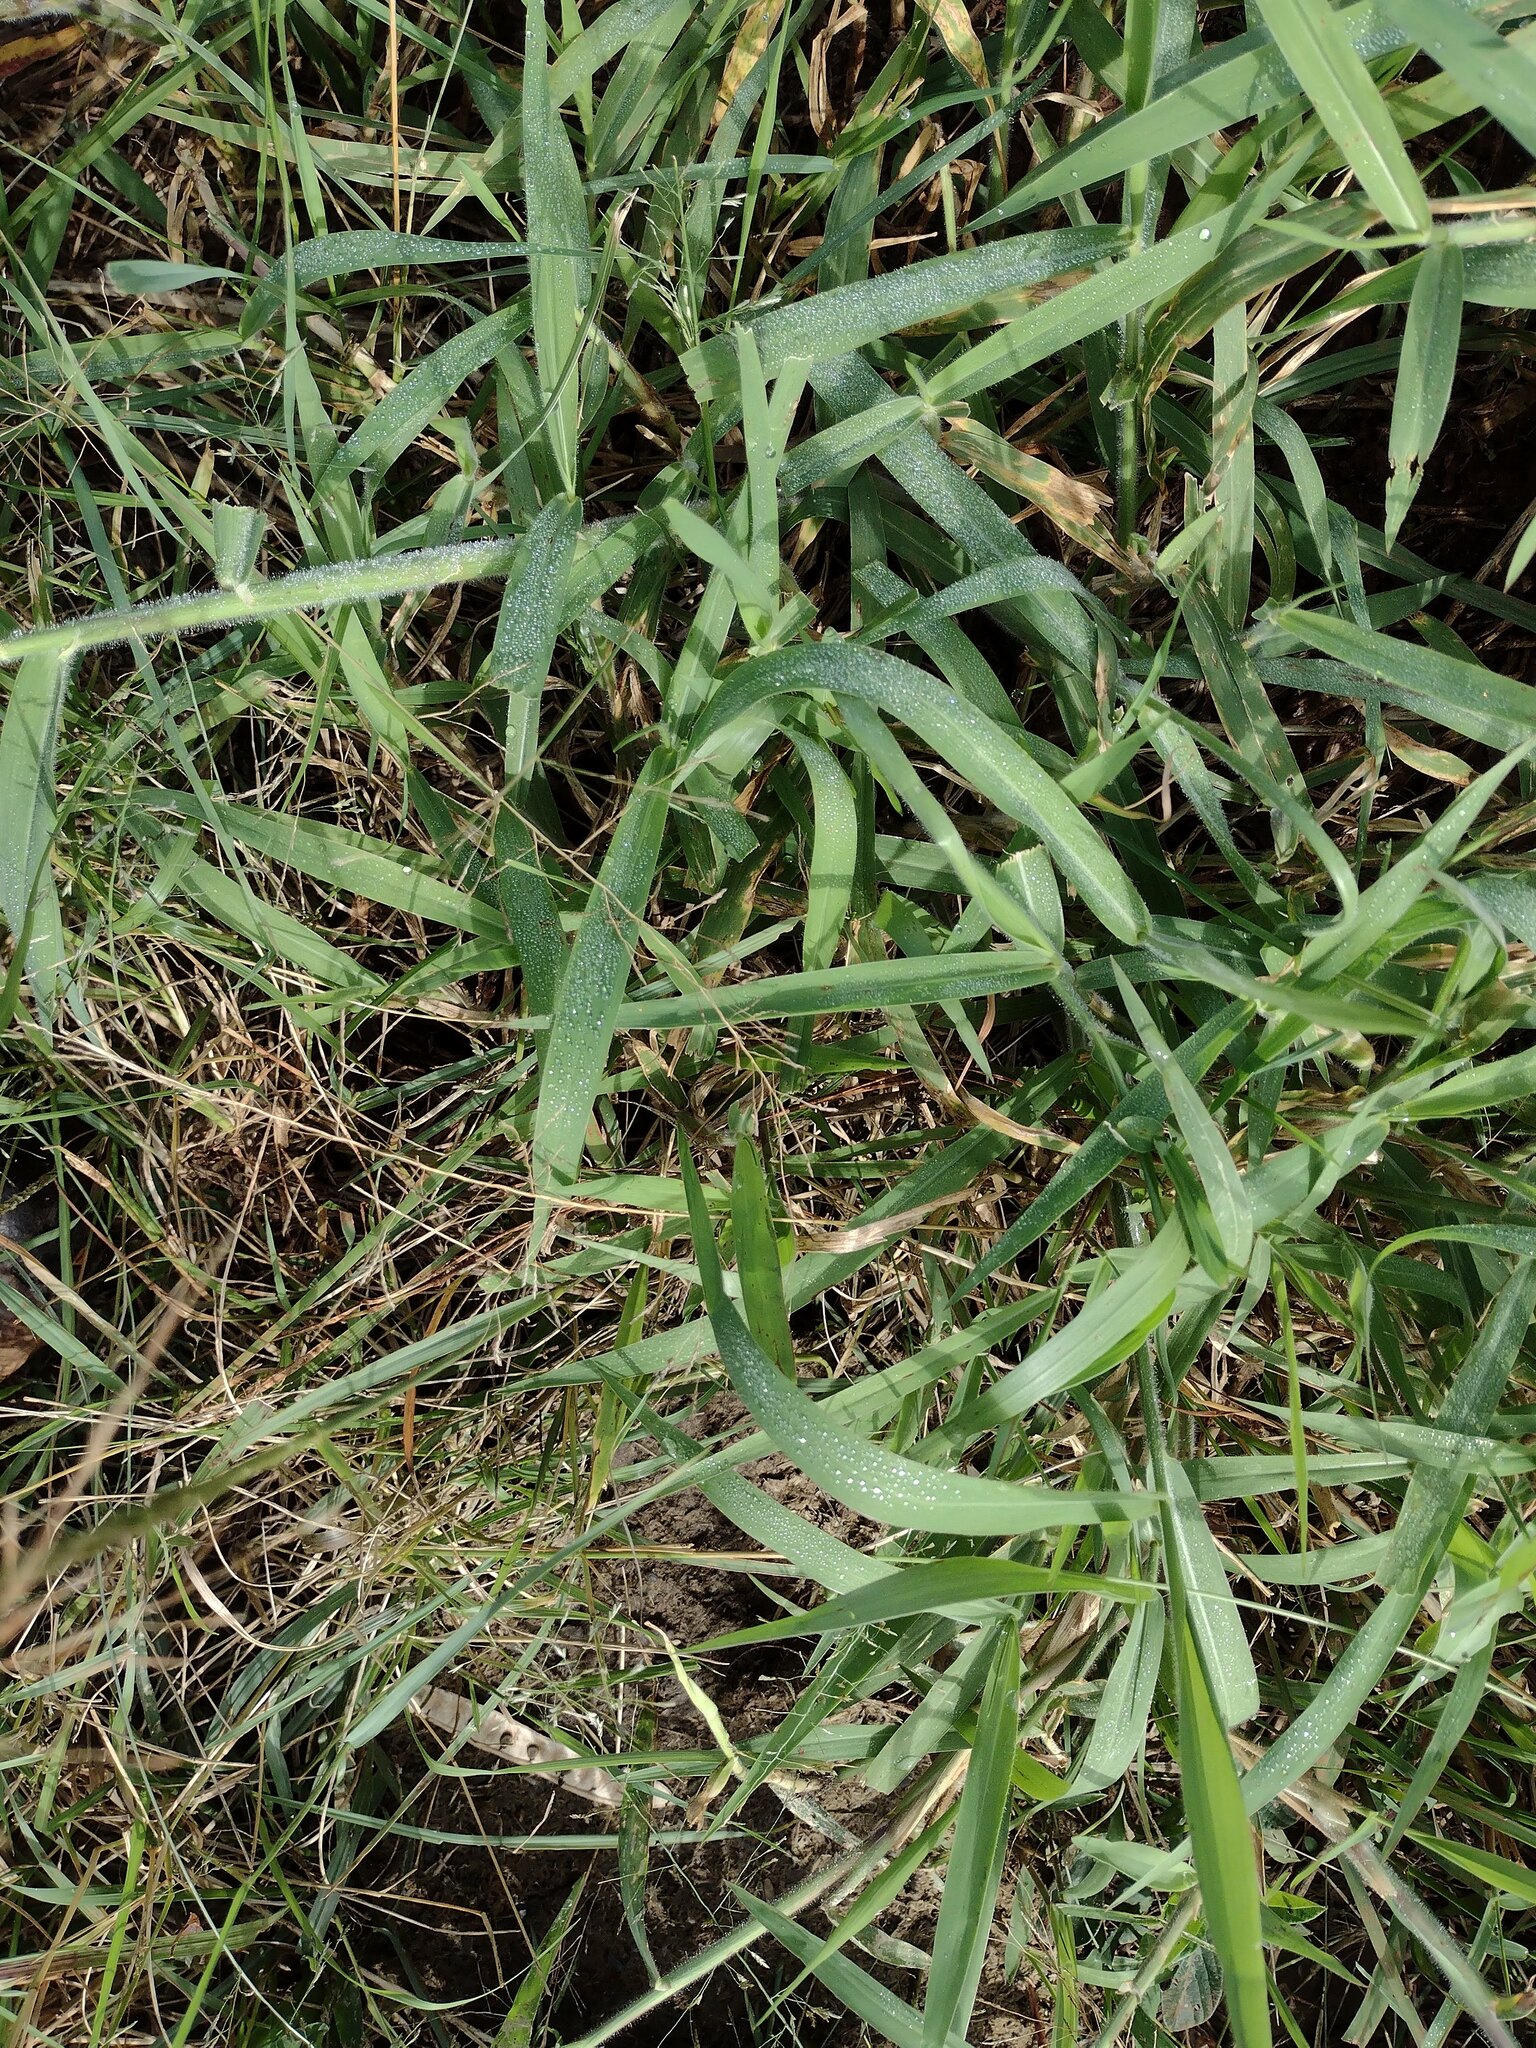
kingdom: Plantae
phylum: Tracheophyta
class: Liliopsida
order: Poales
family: Poaceae
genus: Urochloa
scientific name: Urochloa mutica
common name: Para grass
